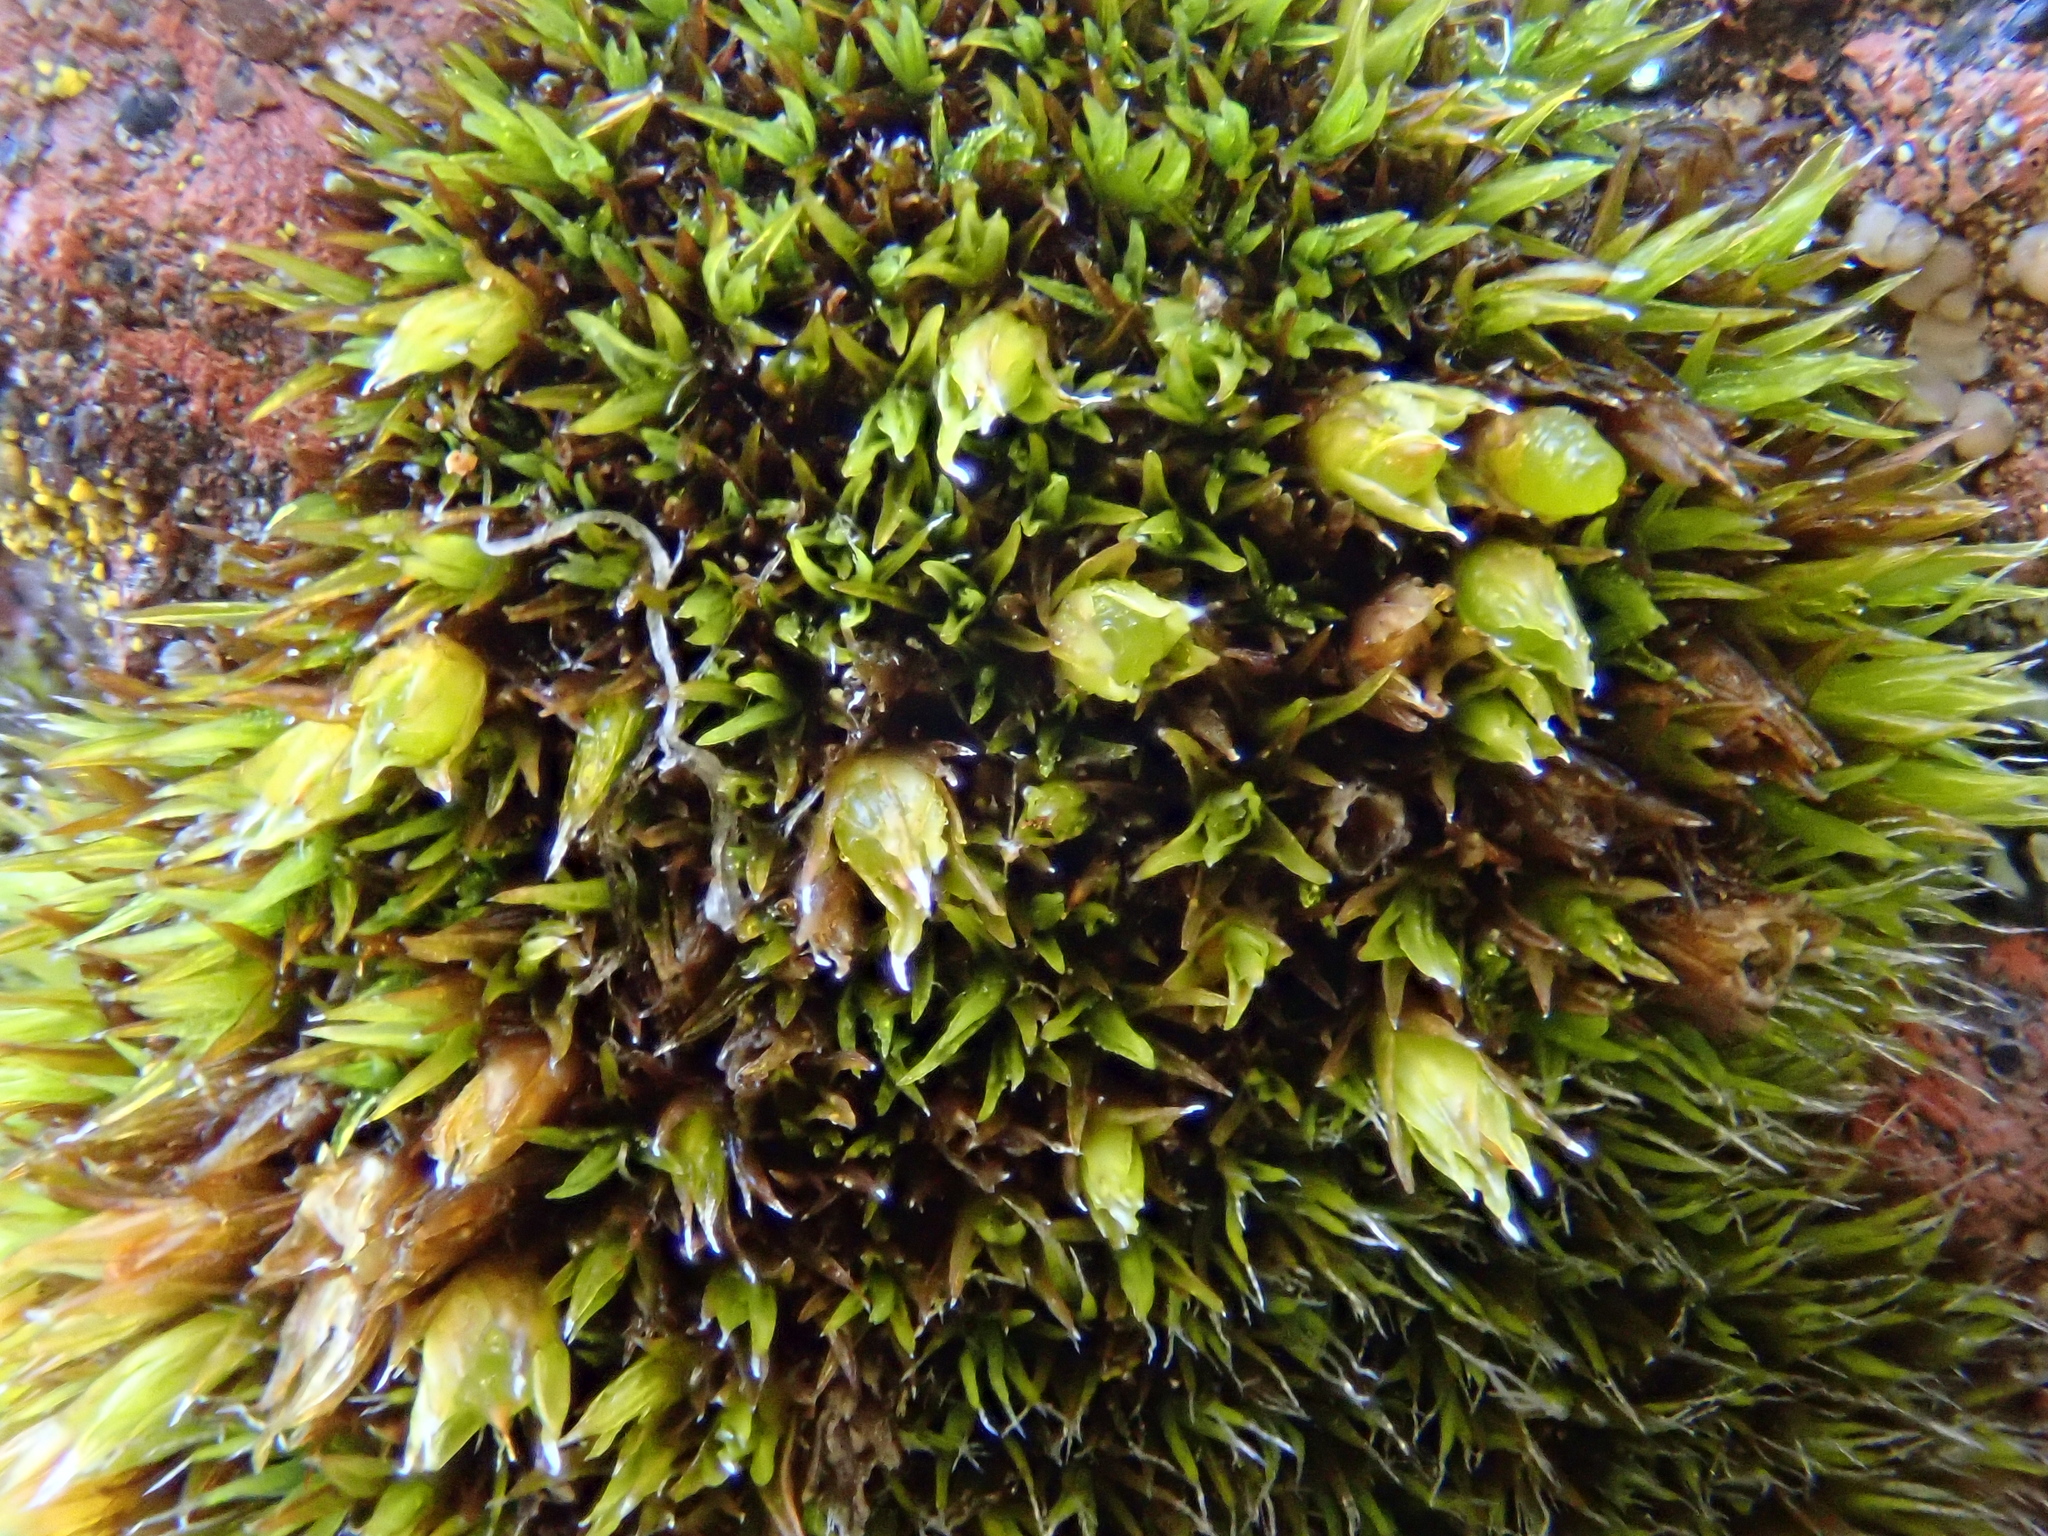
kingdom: Plantae
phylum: Bryophyta
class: Bryopsida
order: Grimmiales
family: Grimmiaceae
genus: Schistidium
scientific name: Schistidium flaccidum
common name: Chubby grimmia
